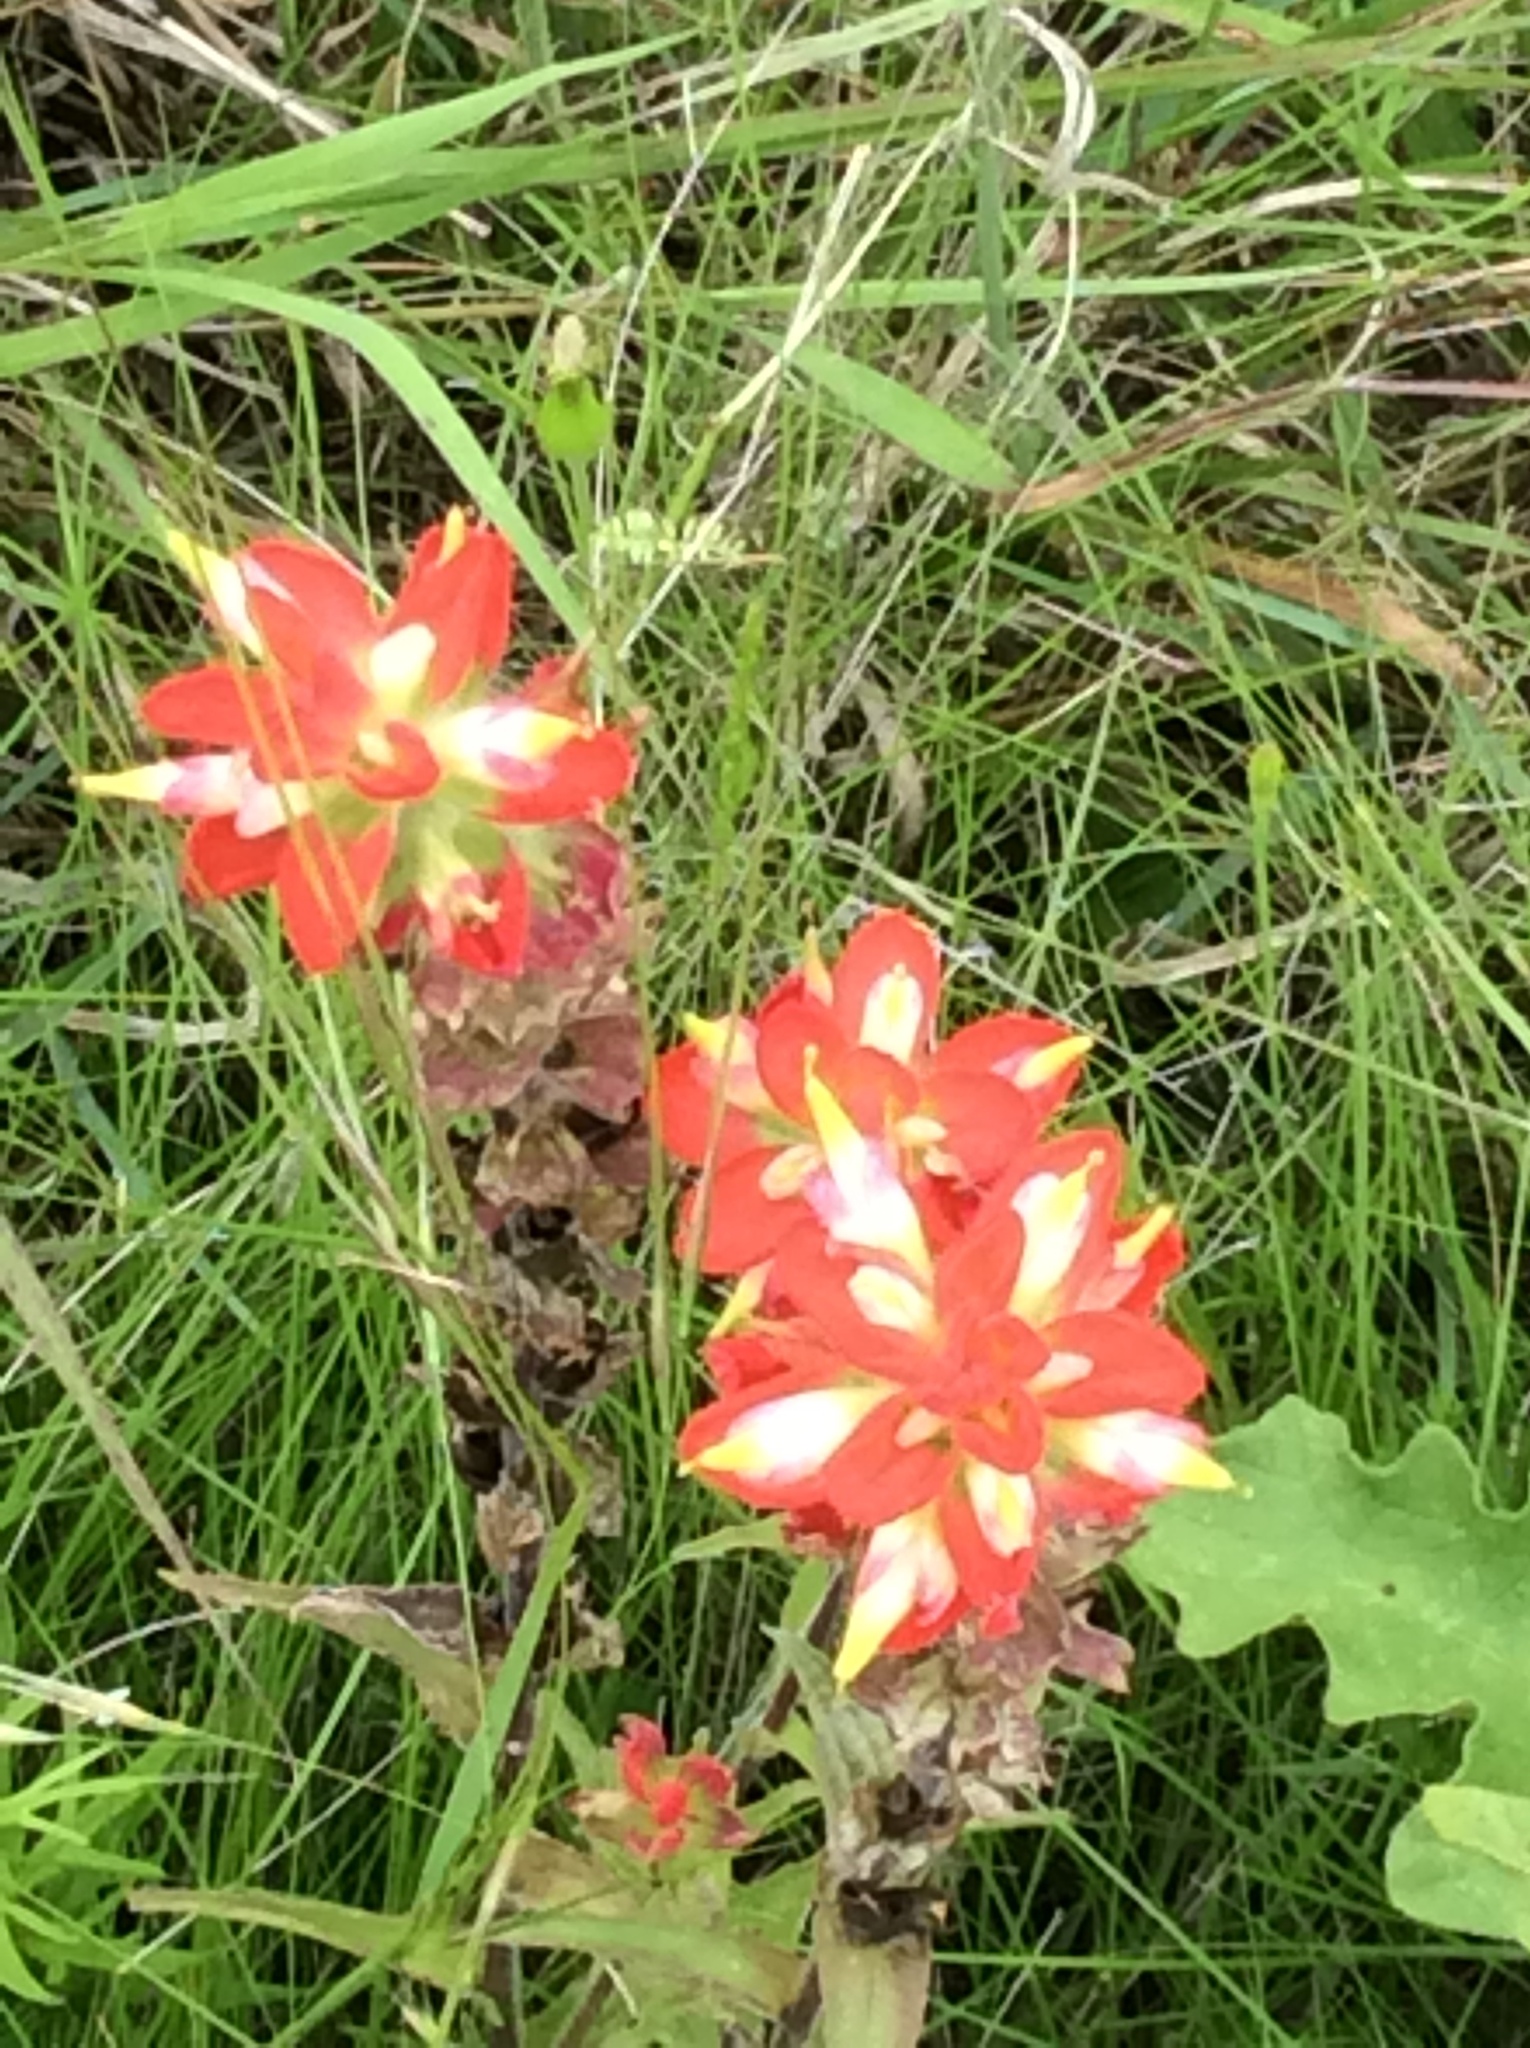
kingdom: Plantae
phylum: Tracheophyta
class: Magnoliopsida
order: Lamiales
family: Orobanchaceae
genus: Castilleja
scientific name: Castilleja indivisa
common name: Texas paintbrush
